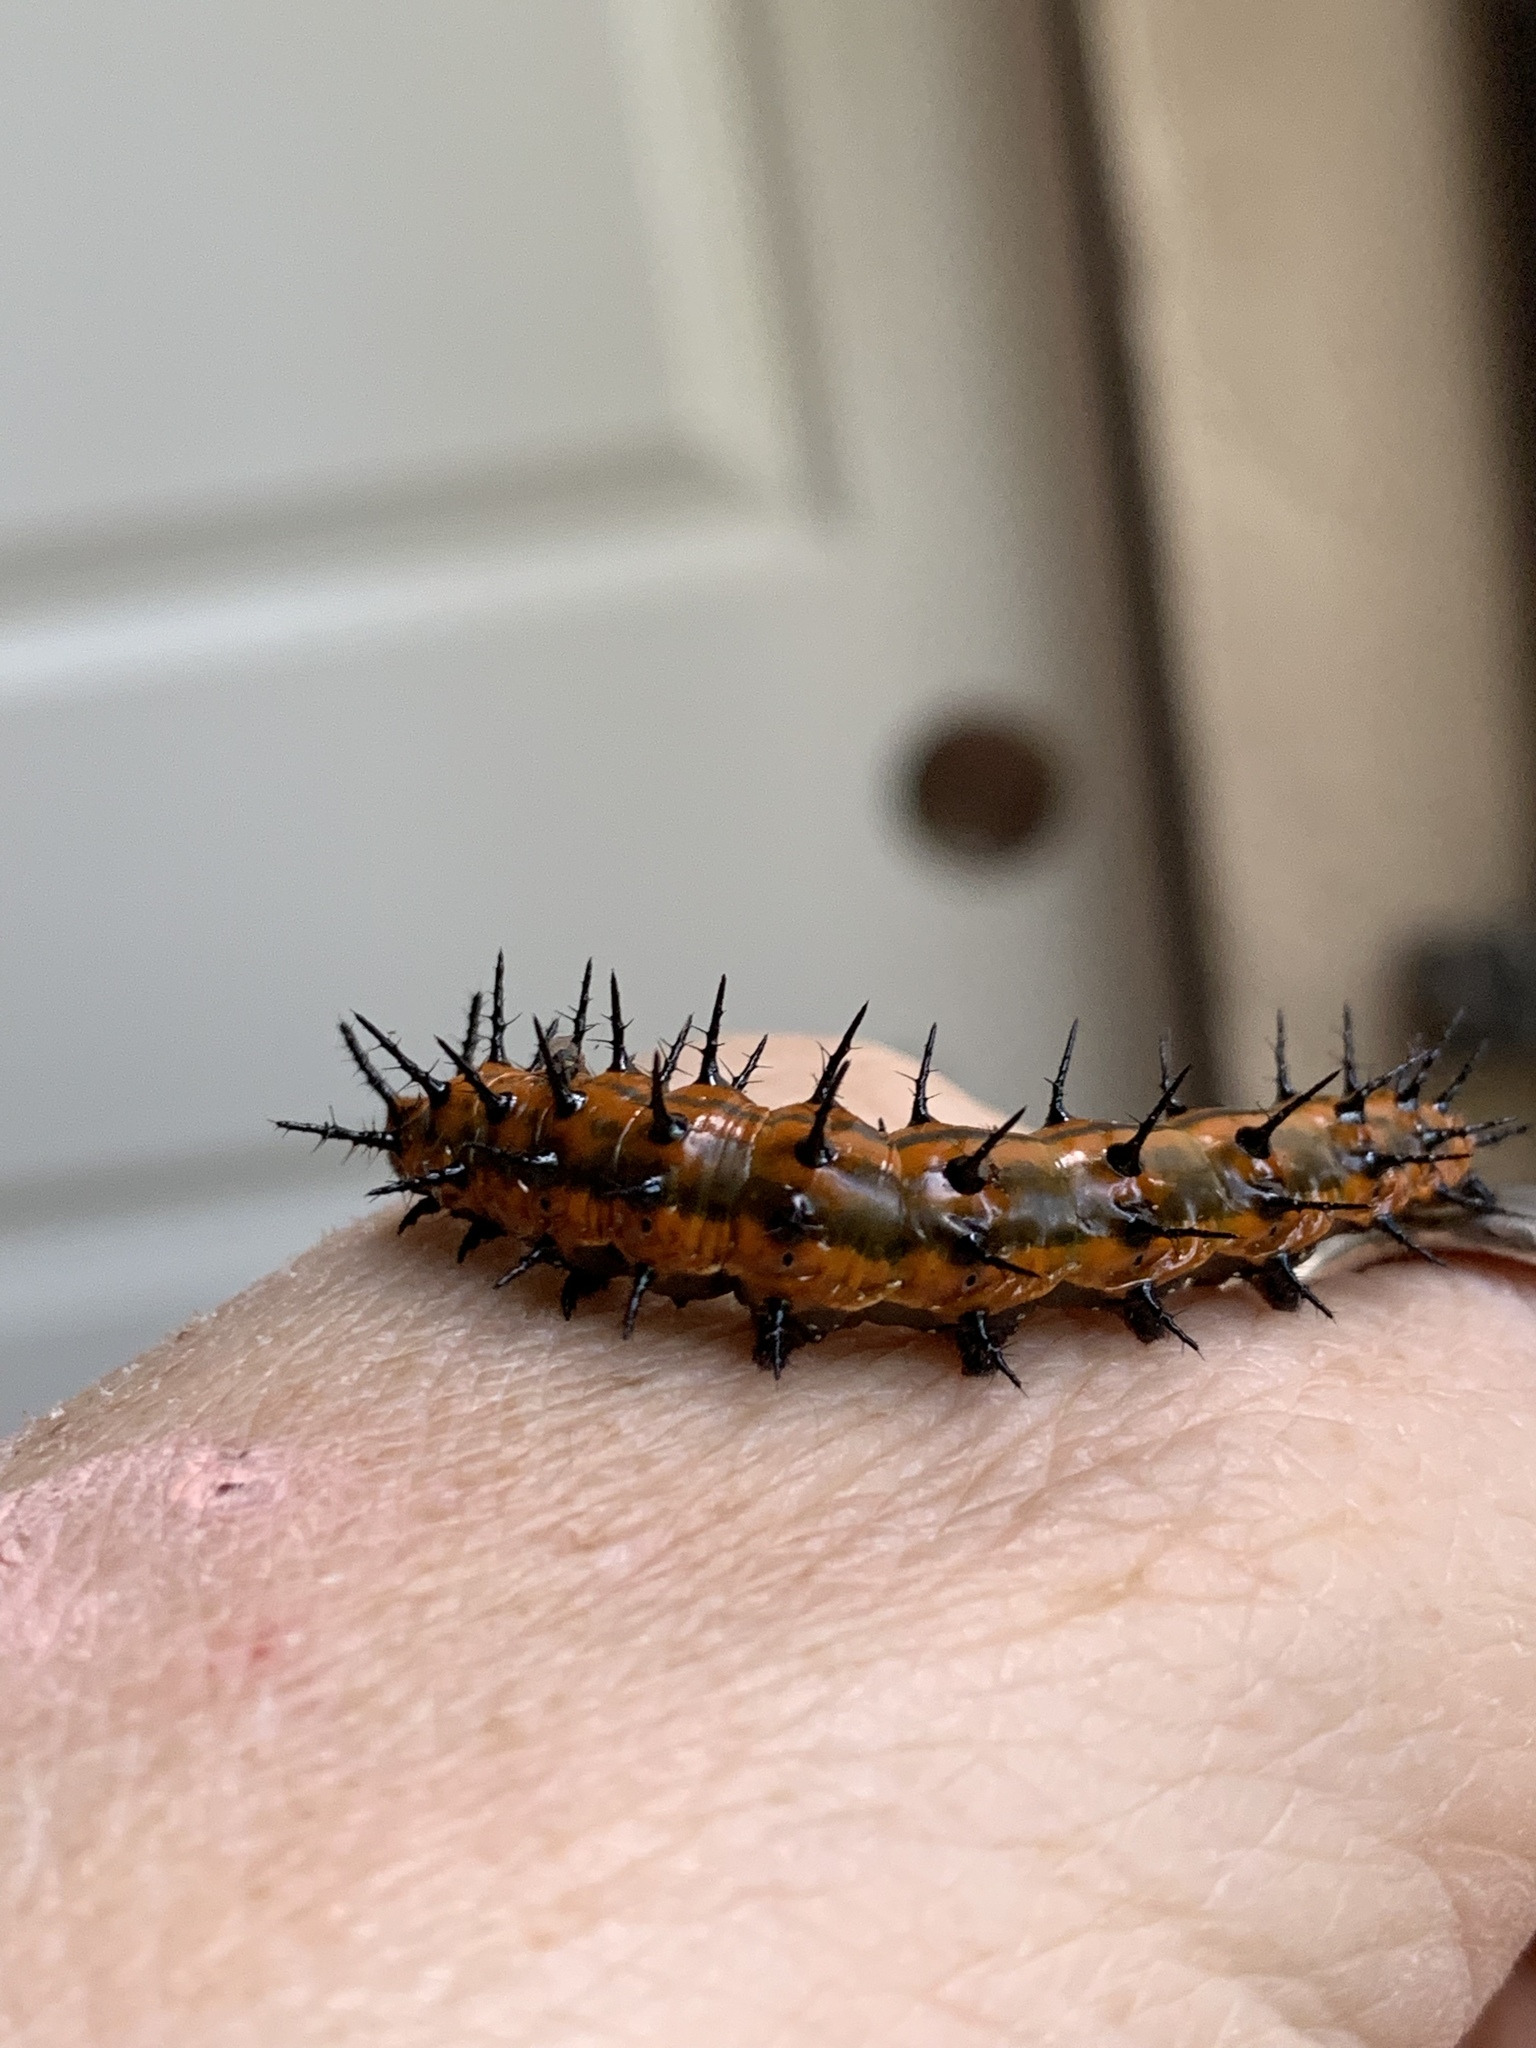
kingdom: Animalia
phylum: Arthropoda
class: Insecta
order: Lepidoptera
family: Nymphalidae
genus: Dione
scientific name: Dione vanillae
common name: Gulf fritillary
